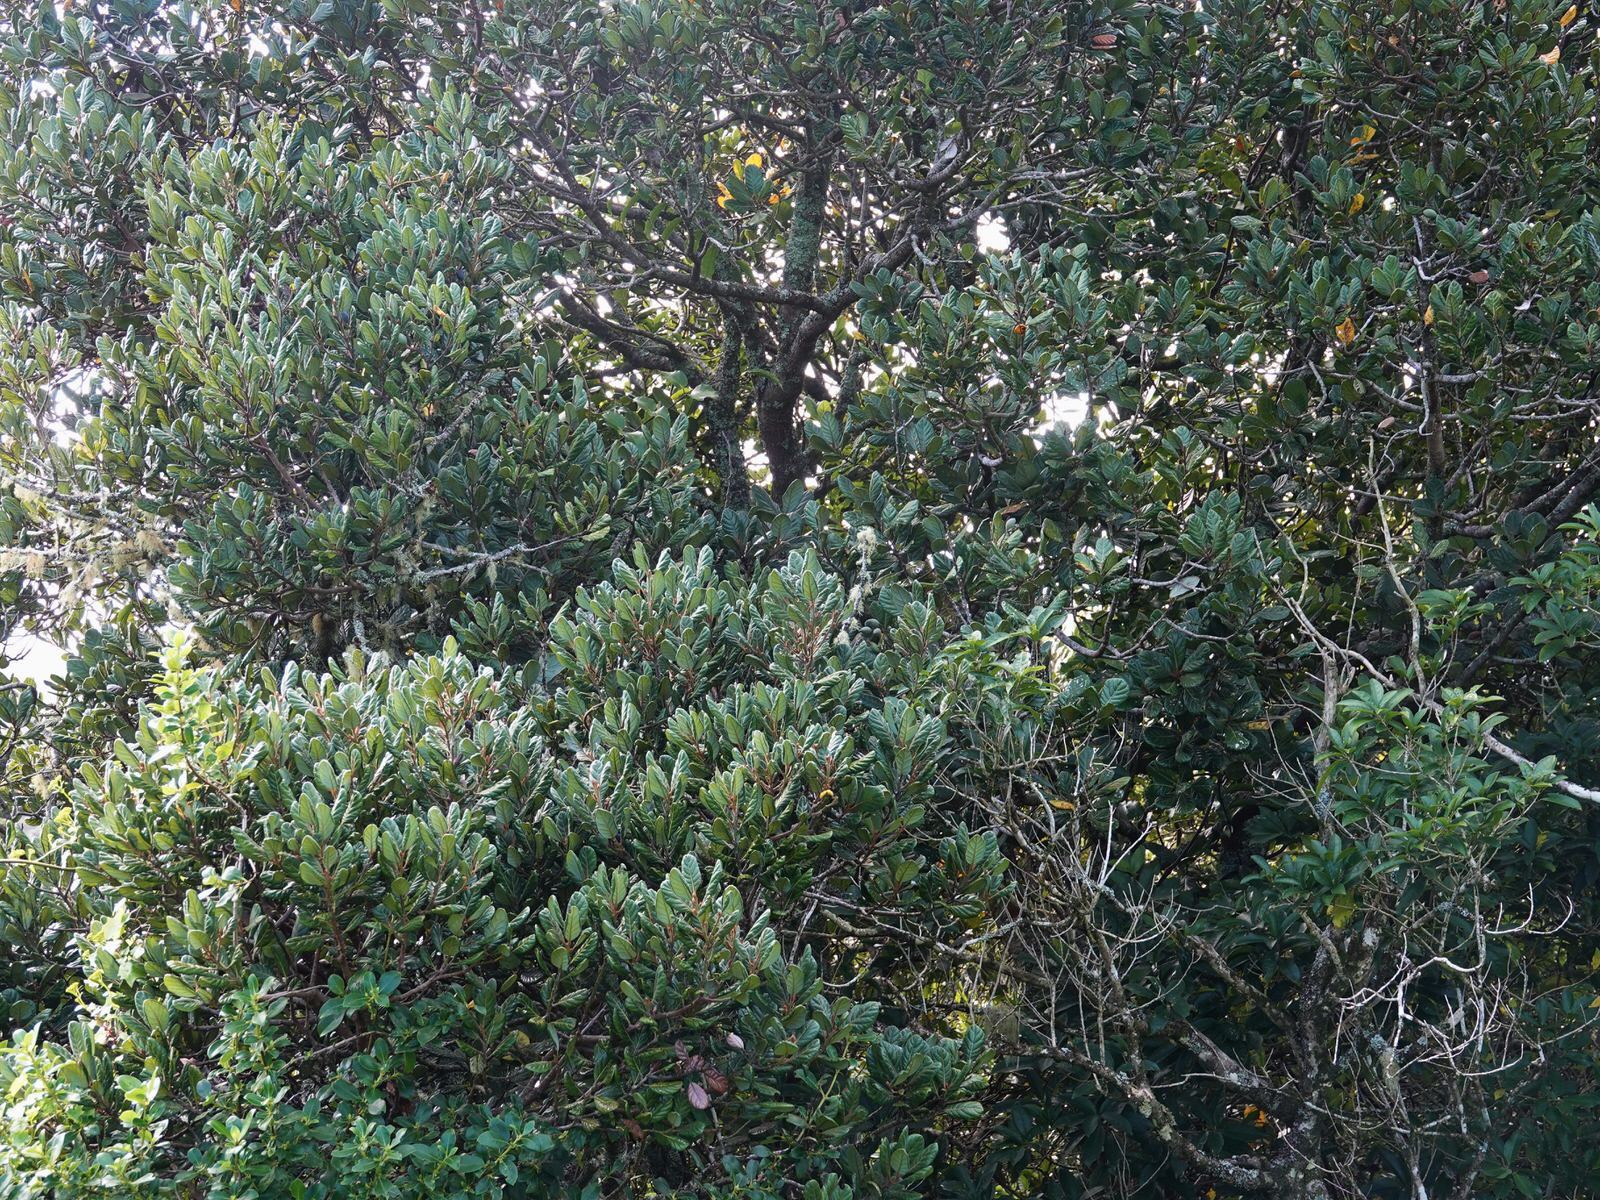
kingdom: Plantae
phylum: Tracheophyta
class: Magnoliopsida
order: Laurales
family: Lauraceae
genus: Beilschmiedia
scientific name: Beilschmiedia tarairi
